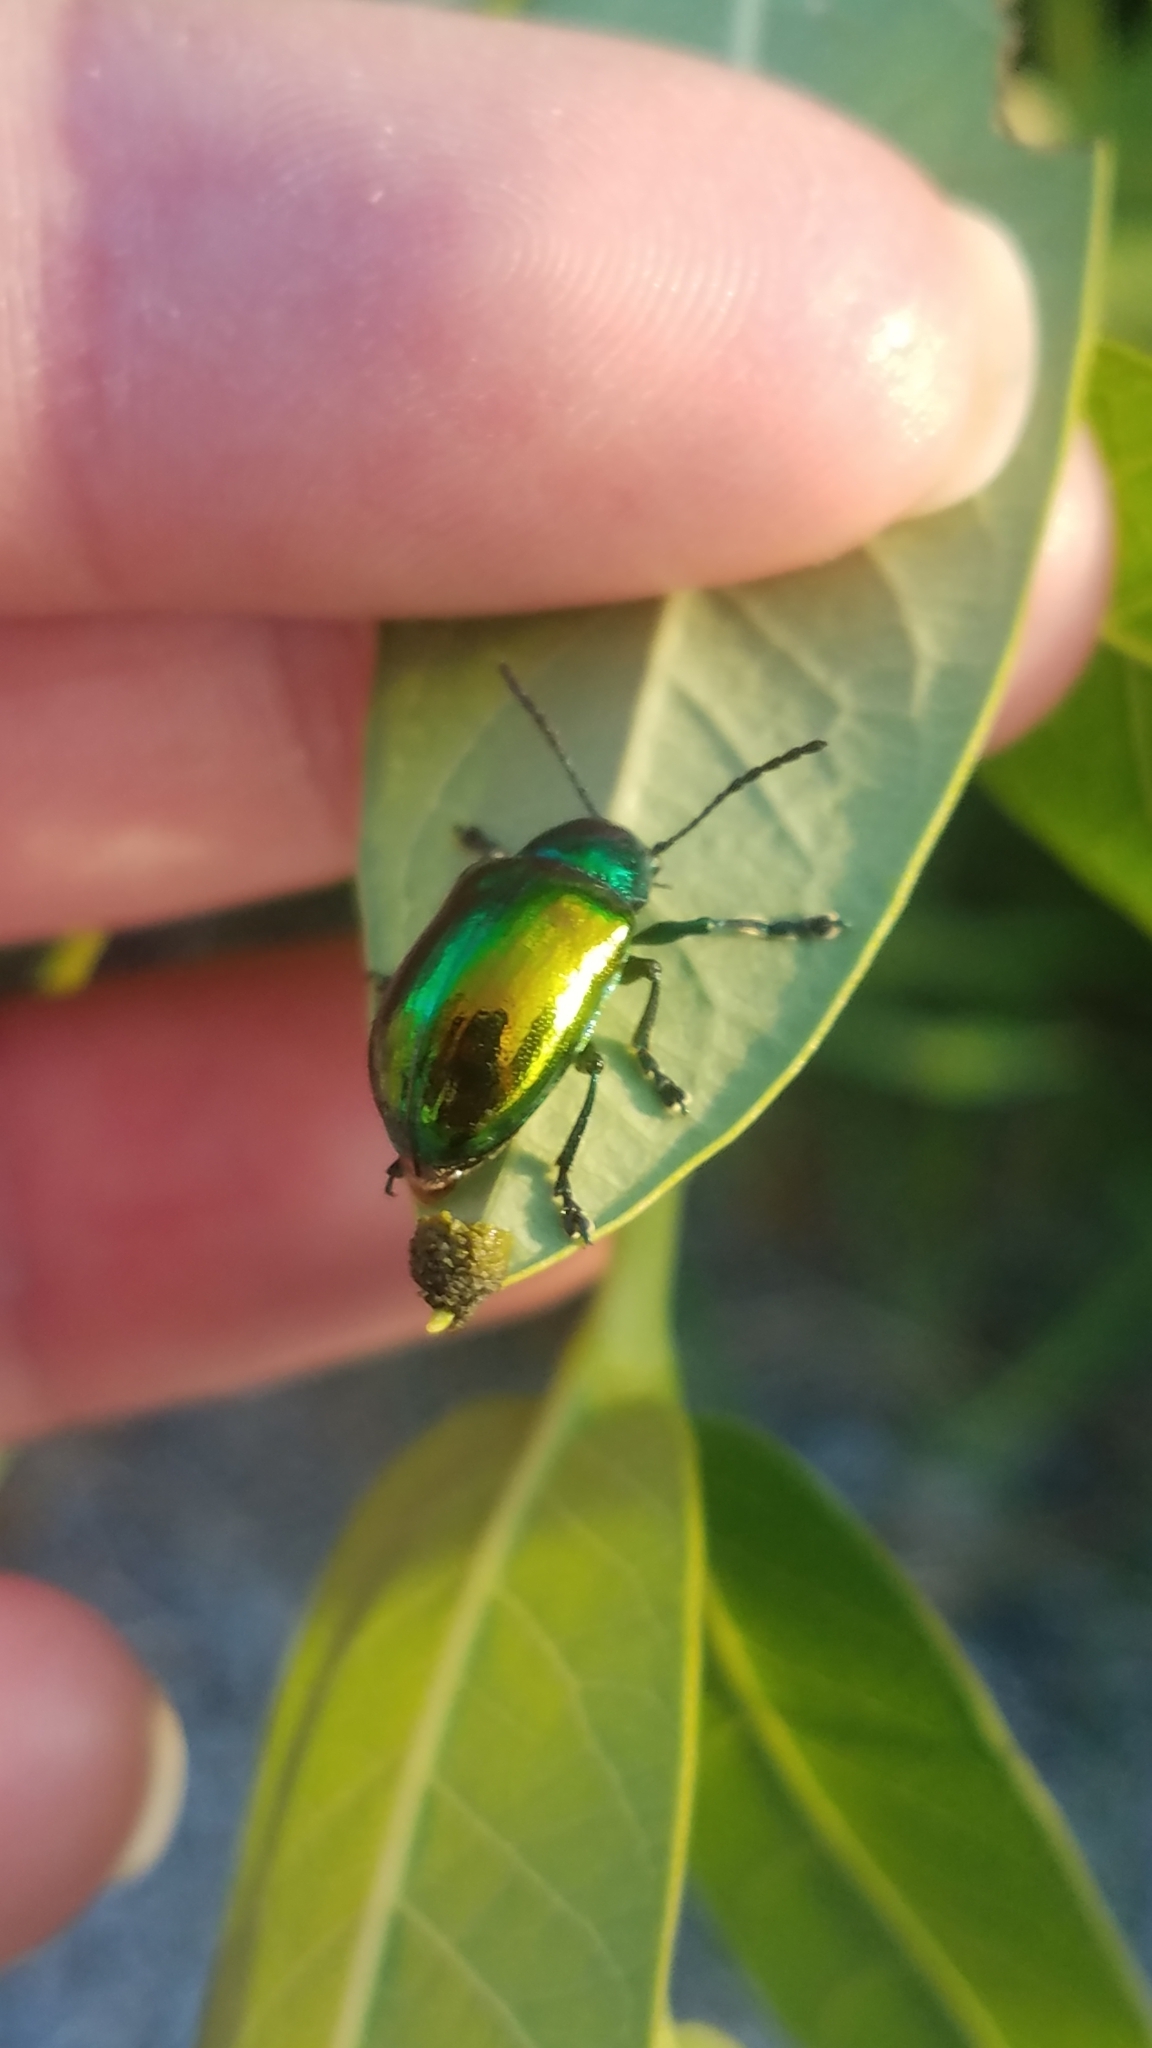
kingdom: Animalia
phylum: Arthropoda
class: Insecta
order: Coleoptera
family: Chrysomelidae
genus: Chrysochus
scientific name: Chrysochus auratus
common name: Dogbane leaf beetle
